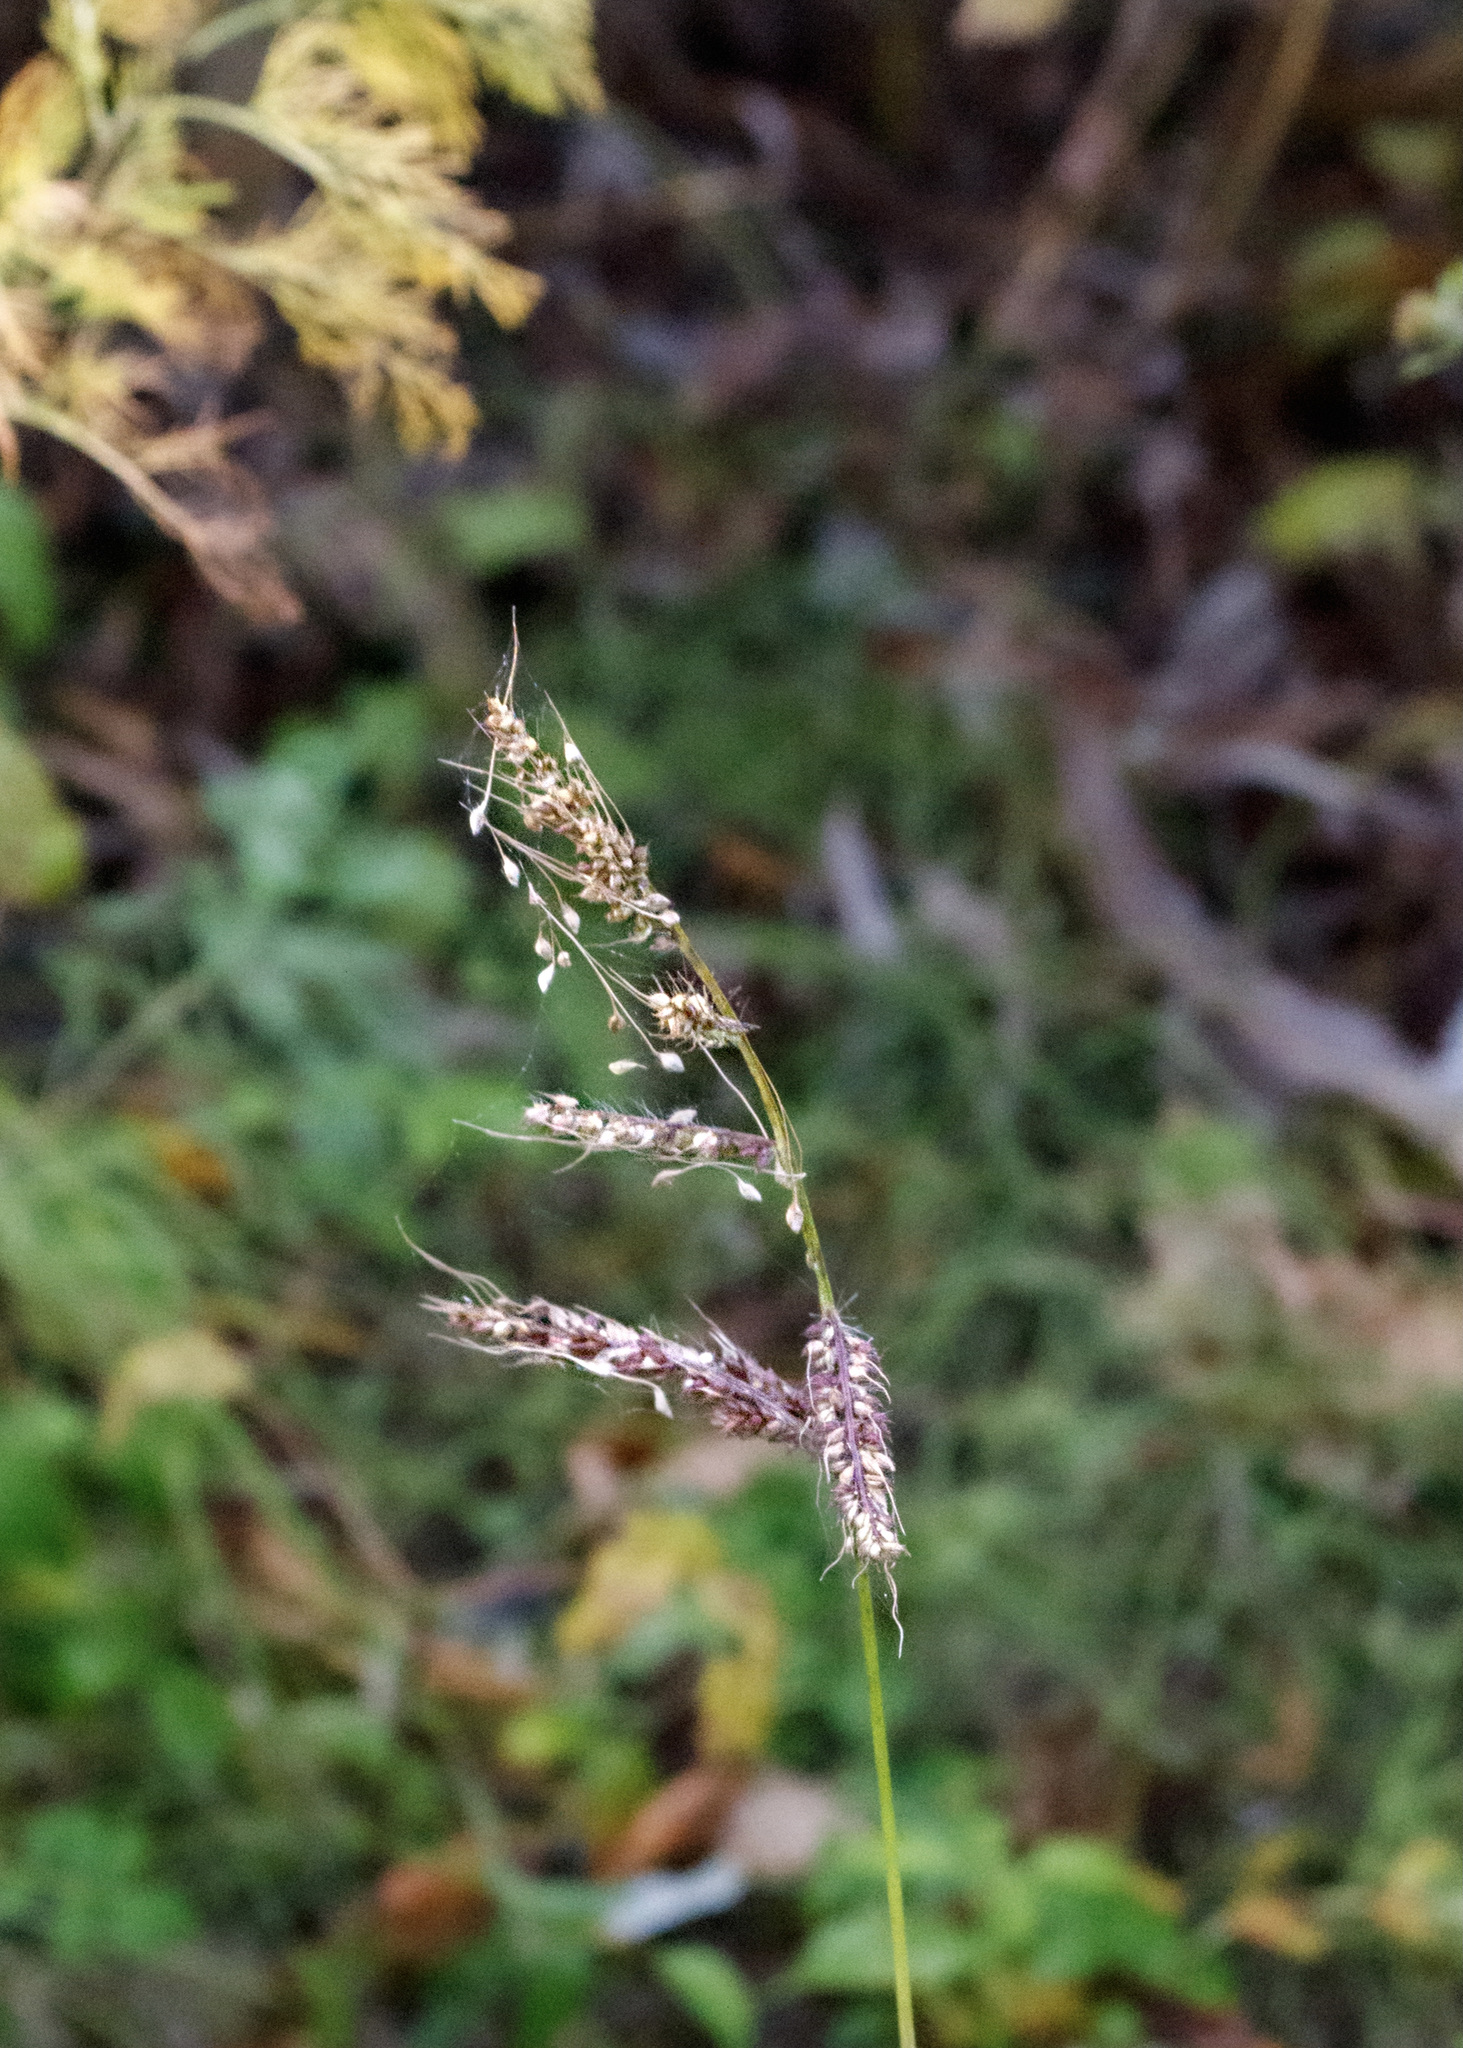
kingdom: Plantae
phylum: Tracheophyta
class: Liliopsida
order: Poales
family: Poaceae
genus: Echinochloa
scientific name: Echinochloa crus-galli
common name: Cockspur
